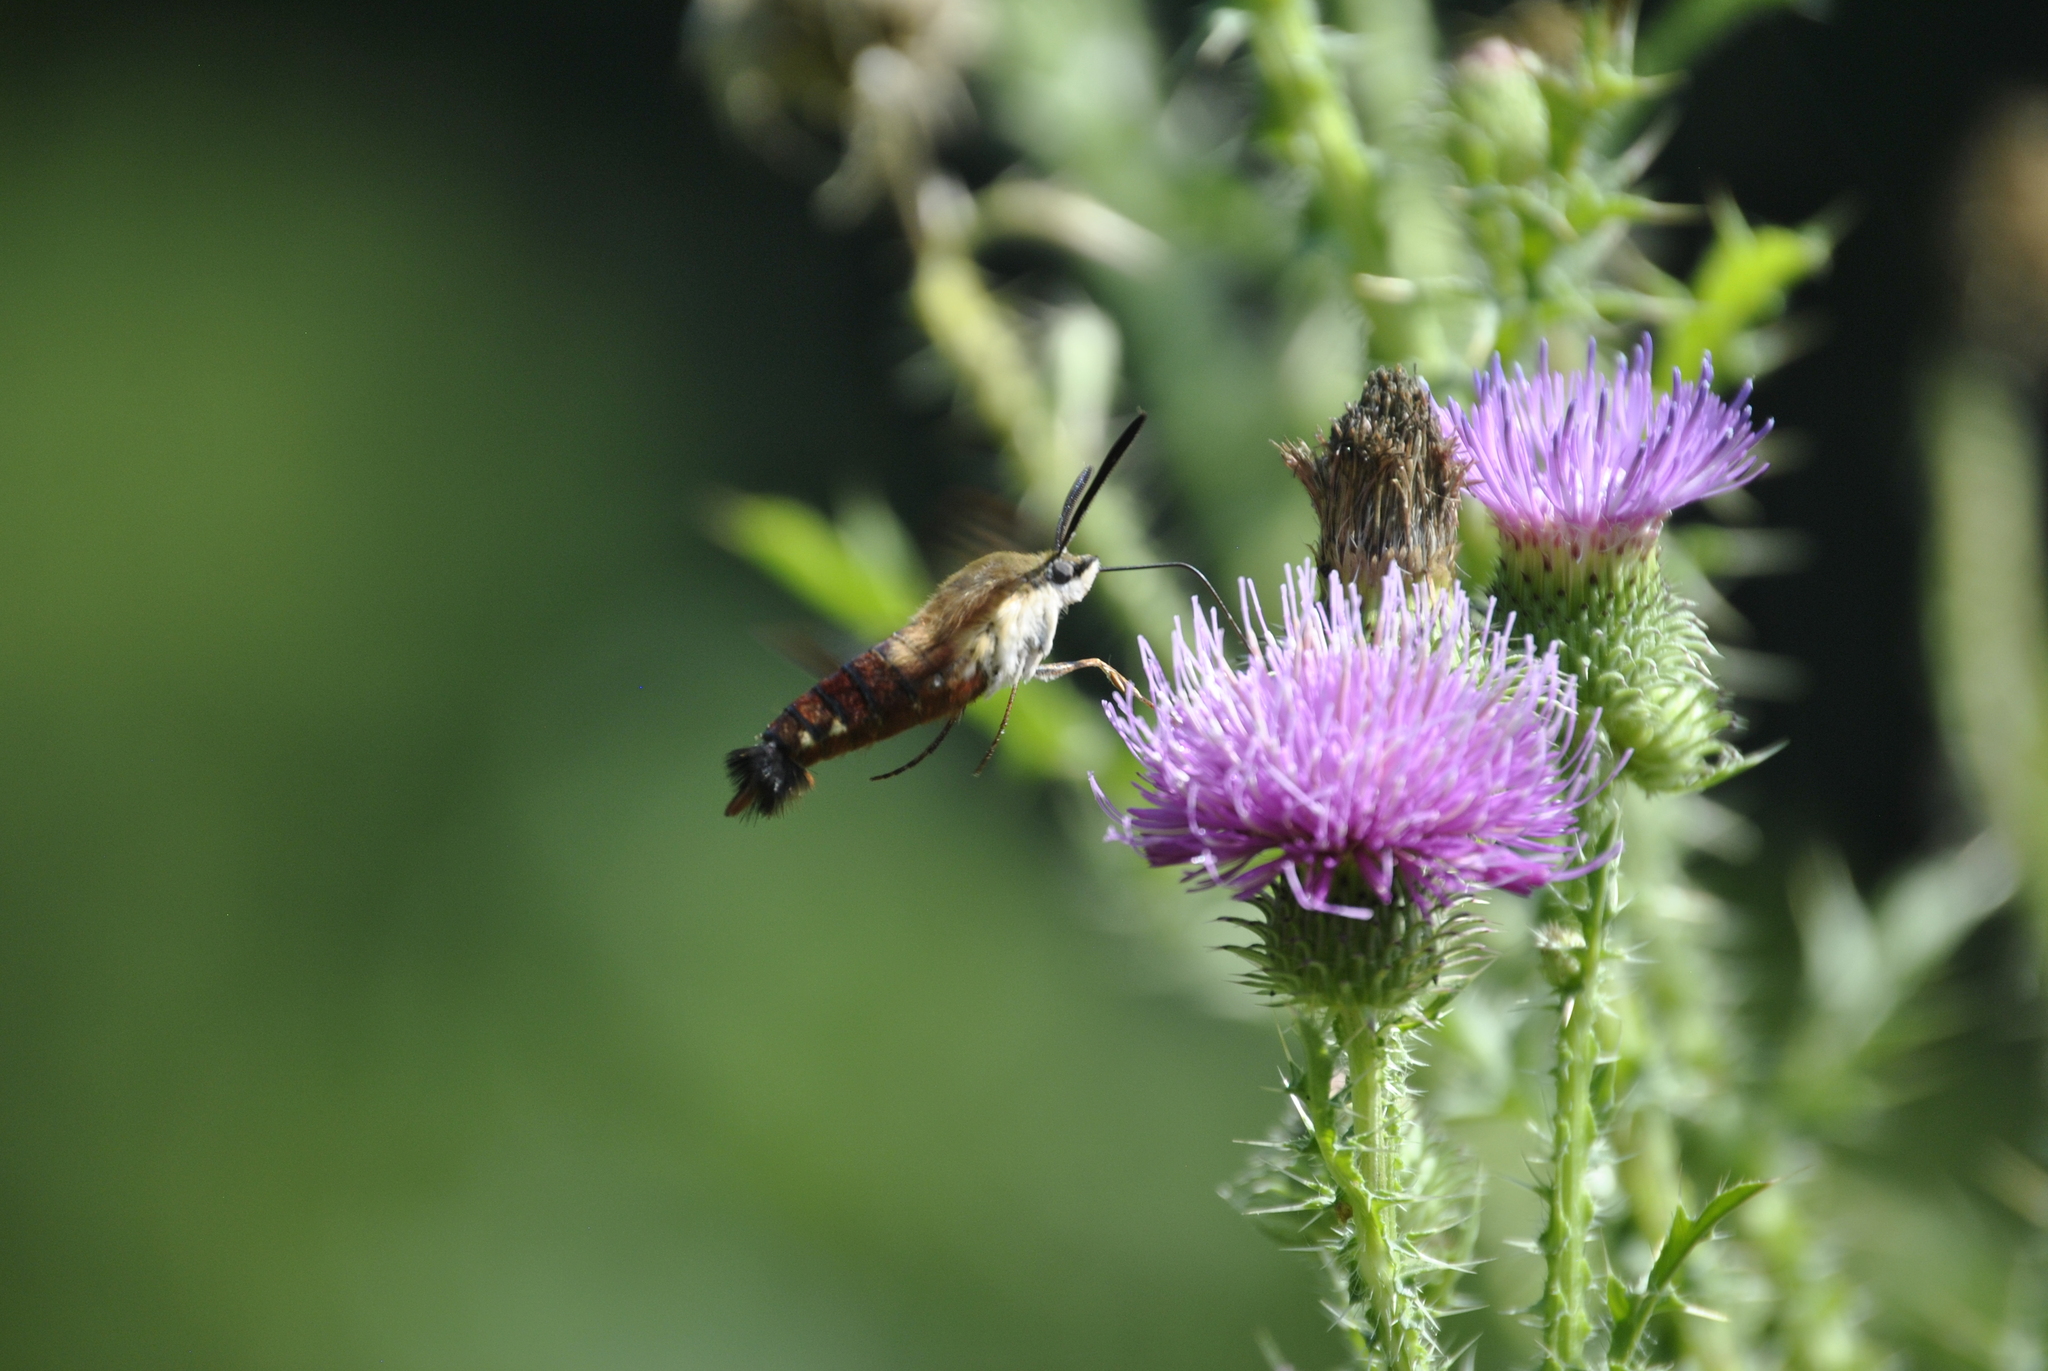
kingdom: Animalia
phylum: Arthropoda
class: Insecta
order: Lepidoptera
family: Sphingidae
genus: Hemaris
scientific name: Hemaris thysbe
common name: Common clear-wing
